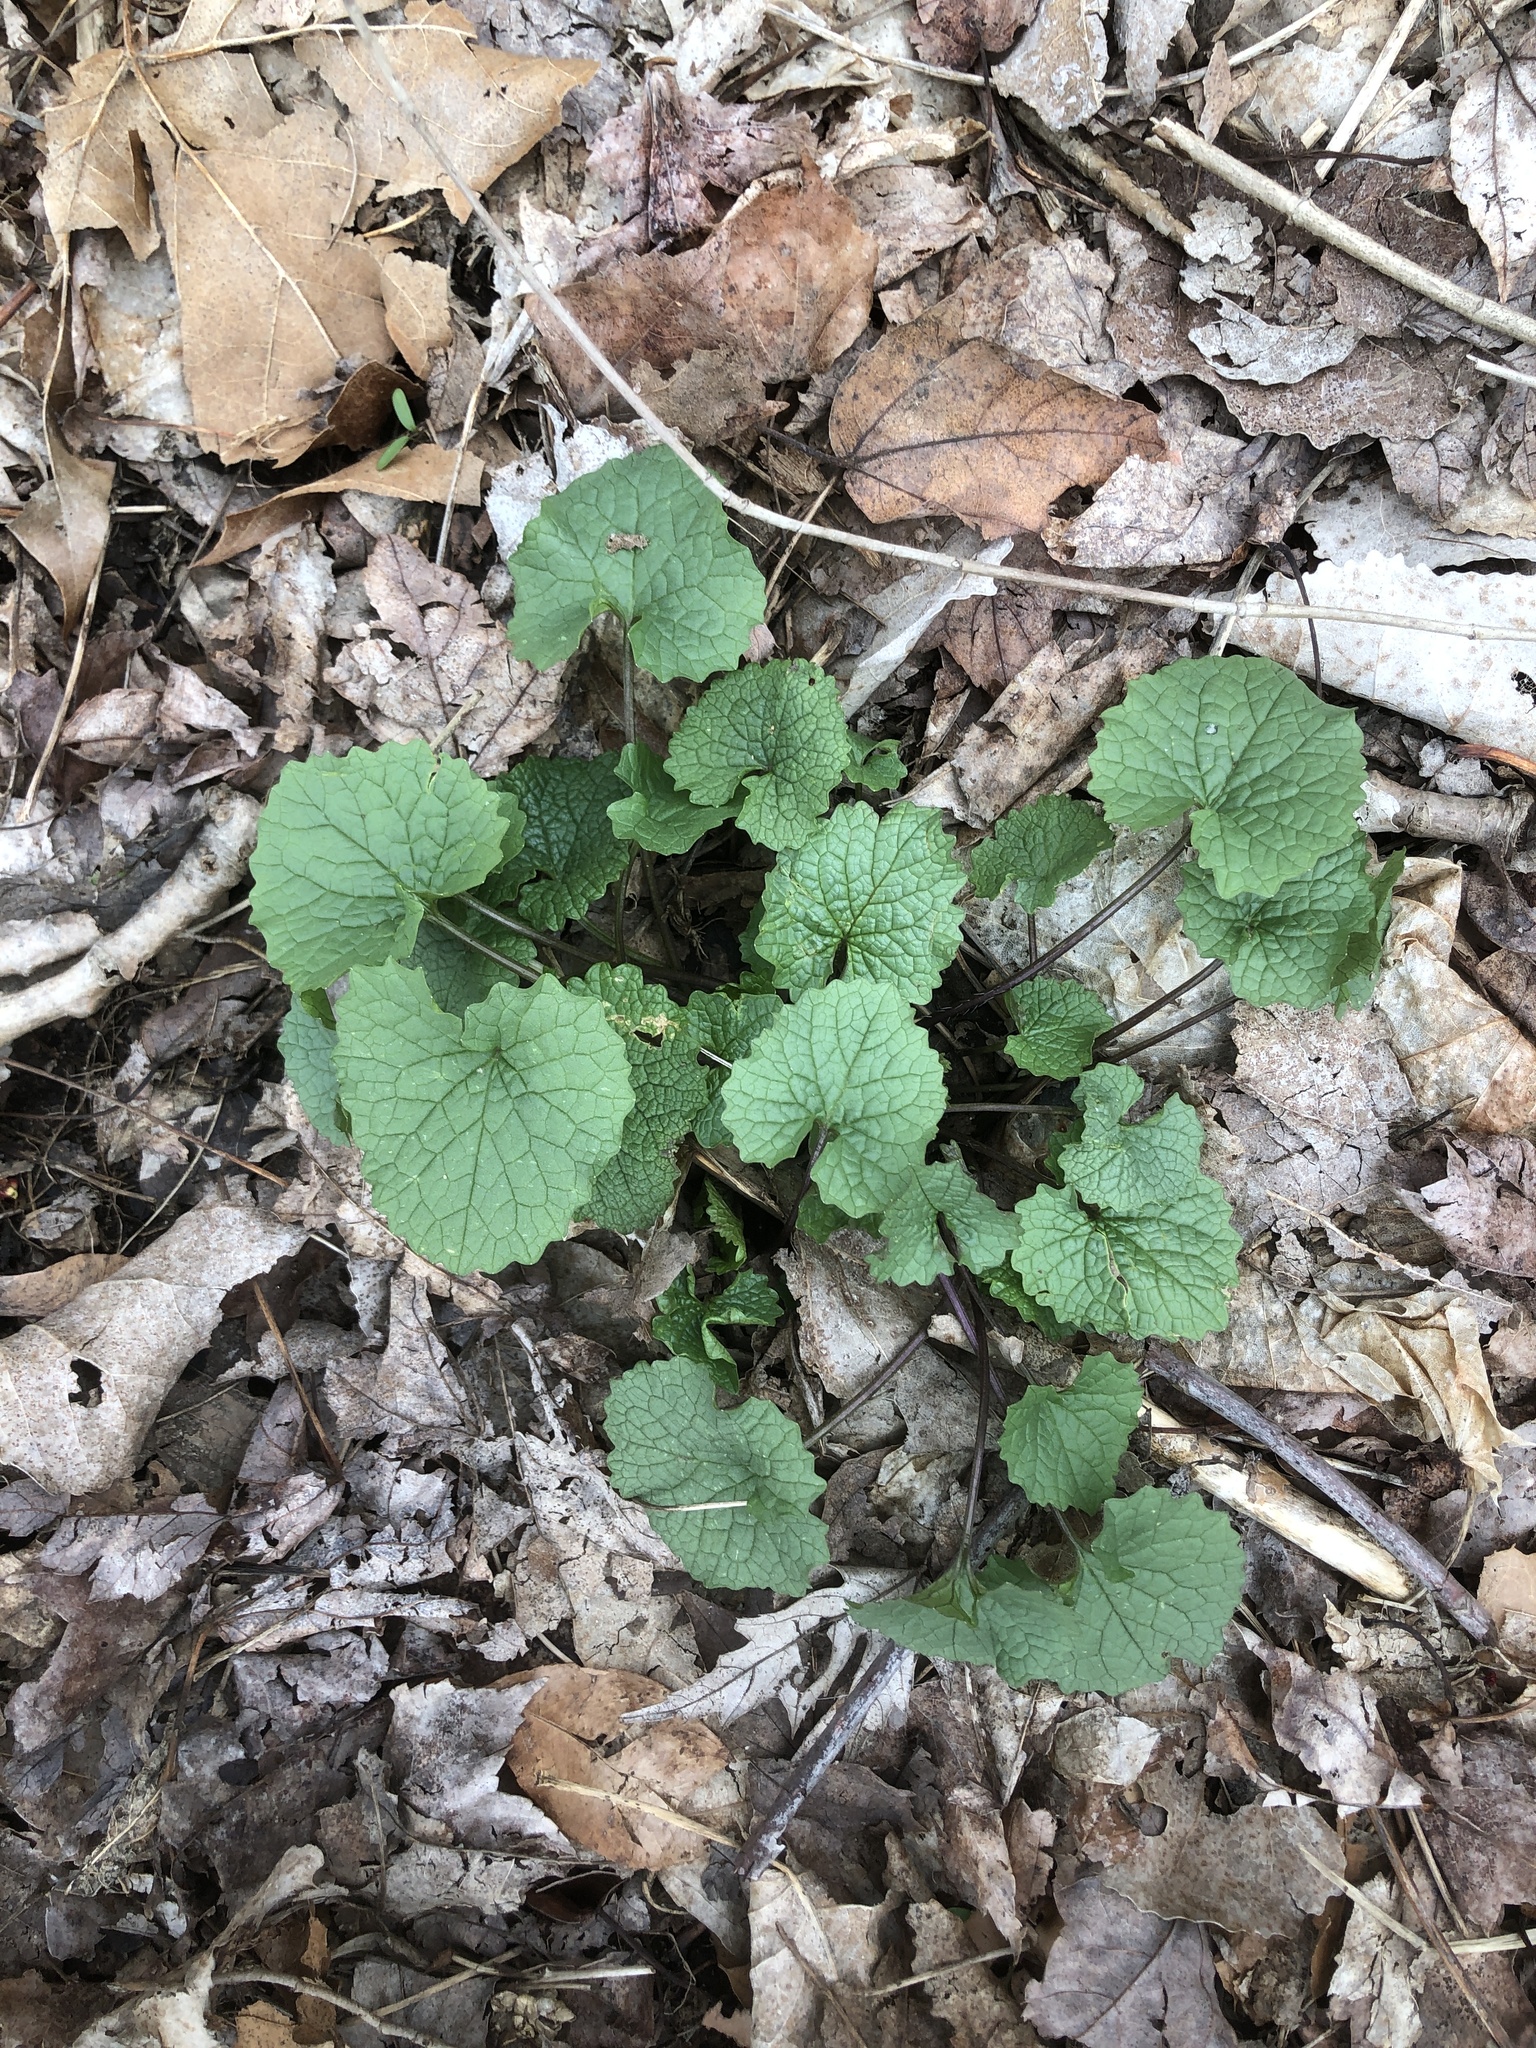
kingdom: Plantae
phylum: Tracheophyta
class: Magnoliopsida
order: Brassicales
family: Brassicaceae
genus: Alliaria
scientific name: Alliaria petiolata
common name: Garlic mustard
